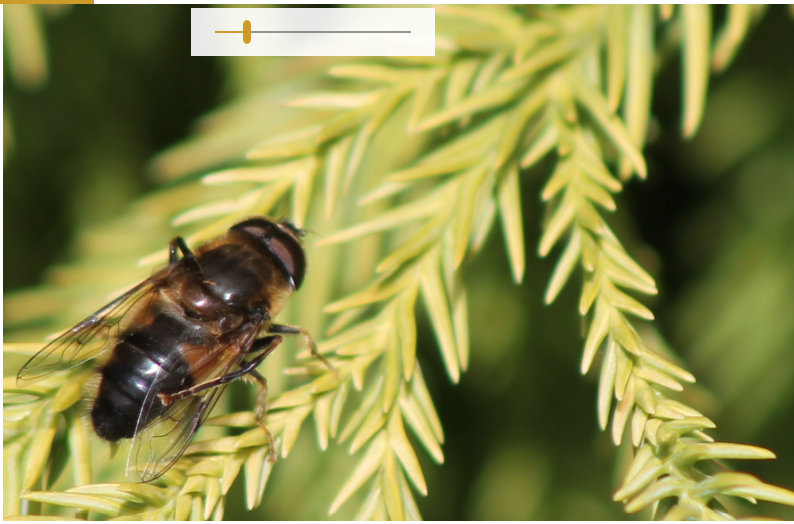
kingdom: Animalia
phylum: Arthropoda
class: Insecta
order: Diptera
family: Syrphidae
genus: Eristalis
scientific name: Eristalis pertinax
